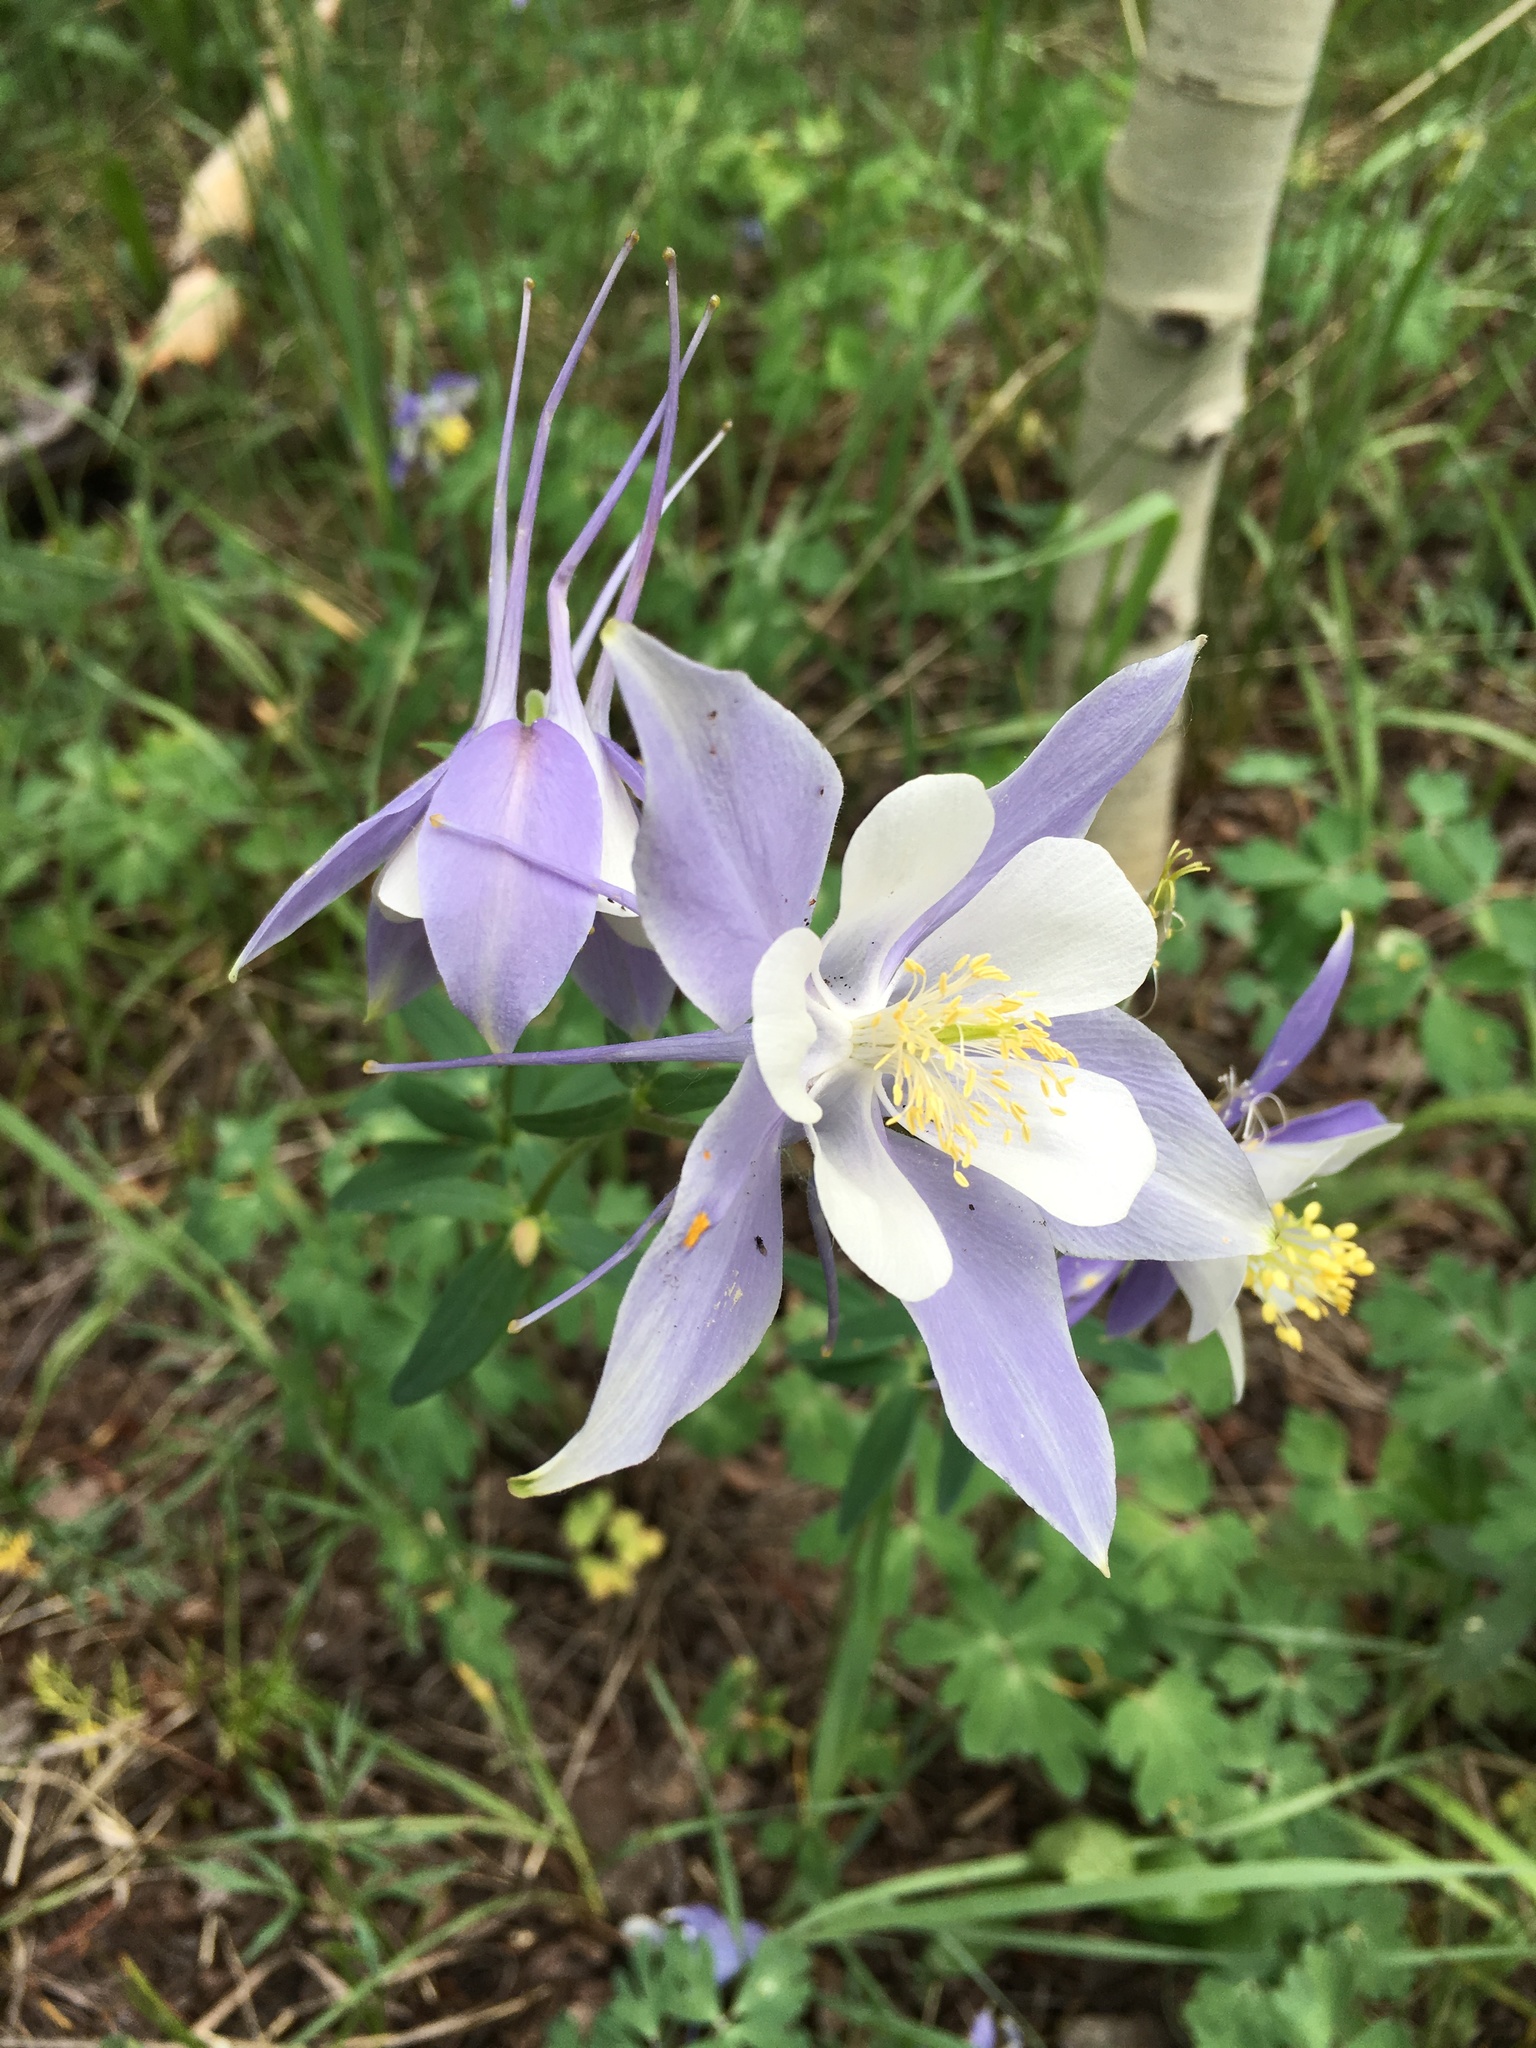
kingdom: Plantae
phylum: Tracheophyta
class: Magnoliopsida
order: Ranunculales
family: Ranunculaceae
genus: Aquilegia
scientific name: Aquilegia coerulea
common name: Rocky mountain columbine
